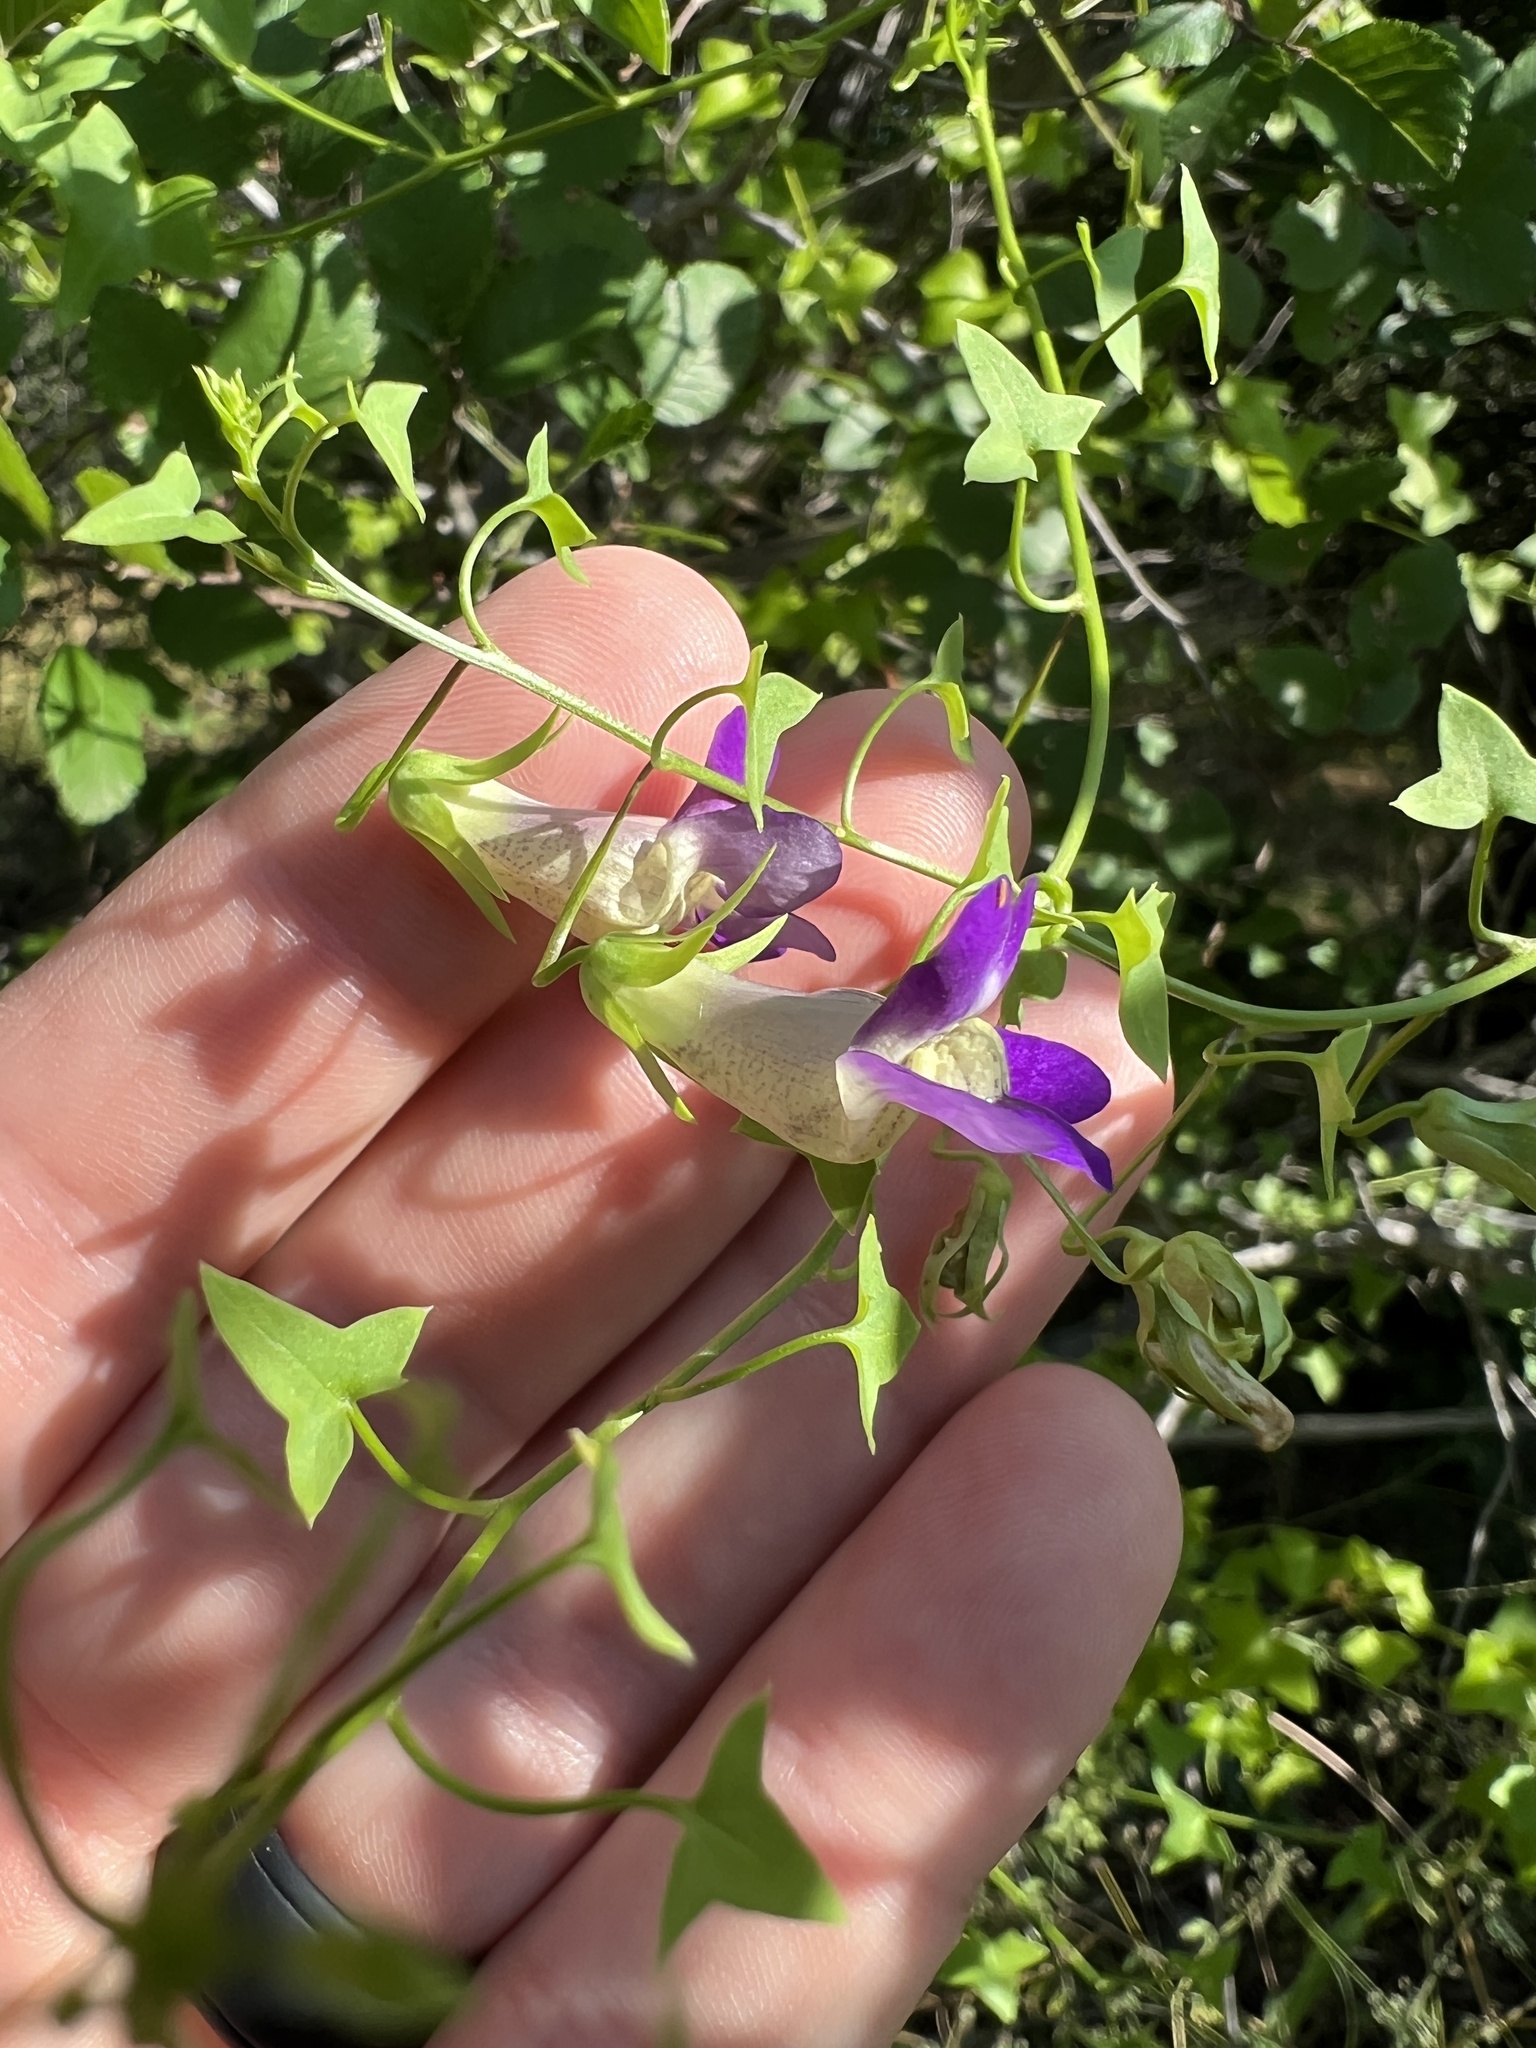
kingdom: Plantae
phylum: Tracheophyta
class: Magnoliopsida
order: Lamiales
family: Plantaginaceae
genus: Maurandella
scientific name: Maurandella antirrhiniflora
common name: Violet twining-snapdragon
